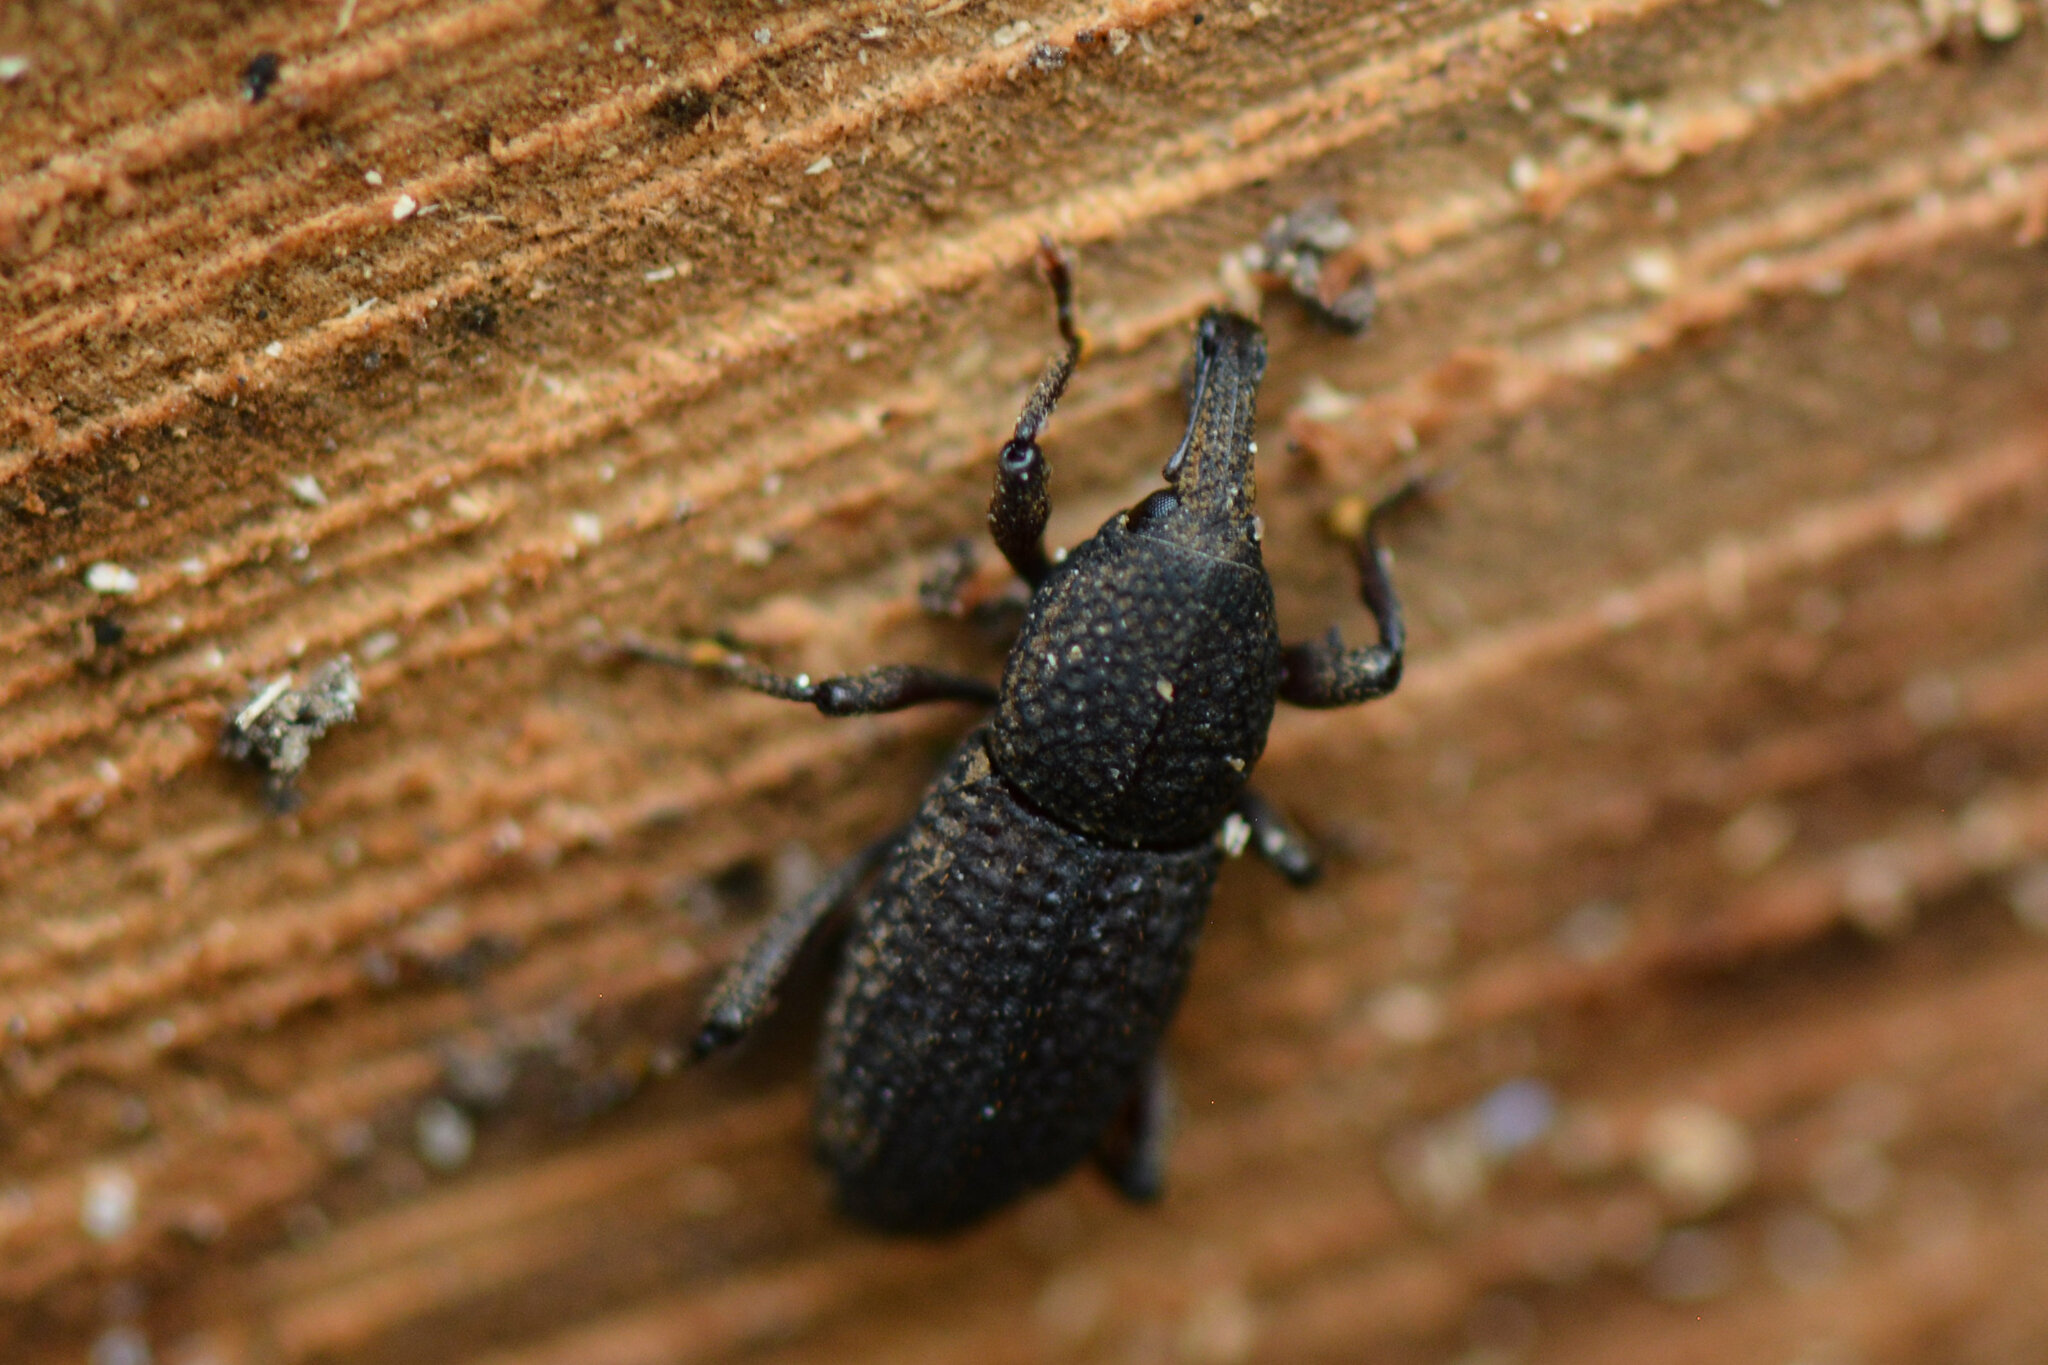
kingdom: Animalia
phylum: Arthropoda
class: Insecta
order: Coleoptera
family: Curculionidae
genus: Mitoplinthus
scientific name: Mitoplinthus caliginosus
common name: Hop root weevil
